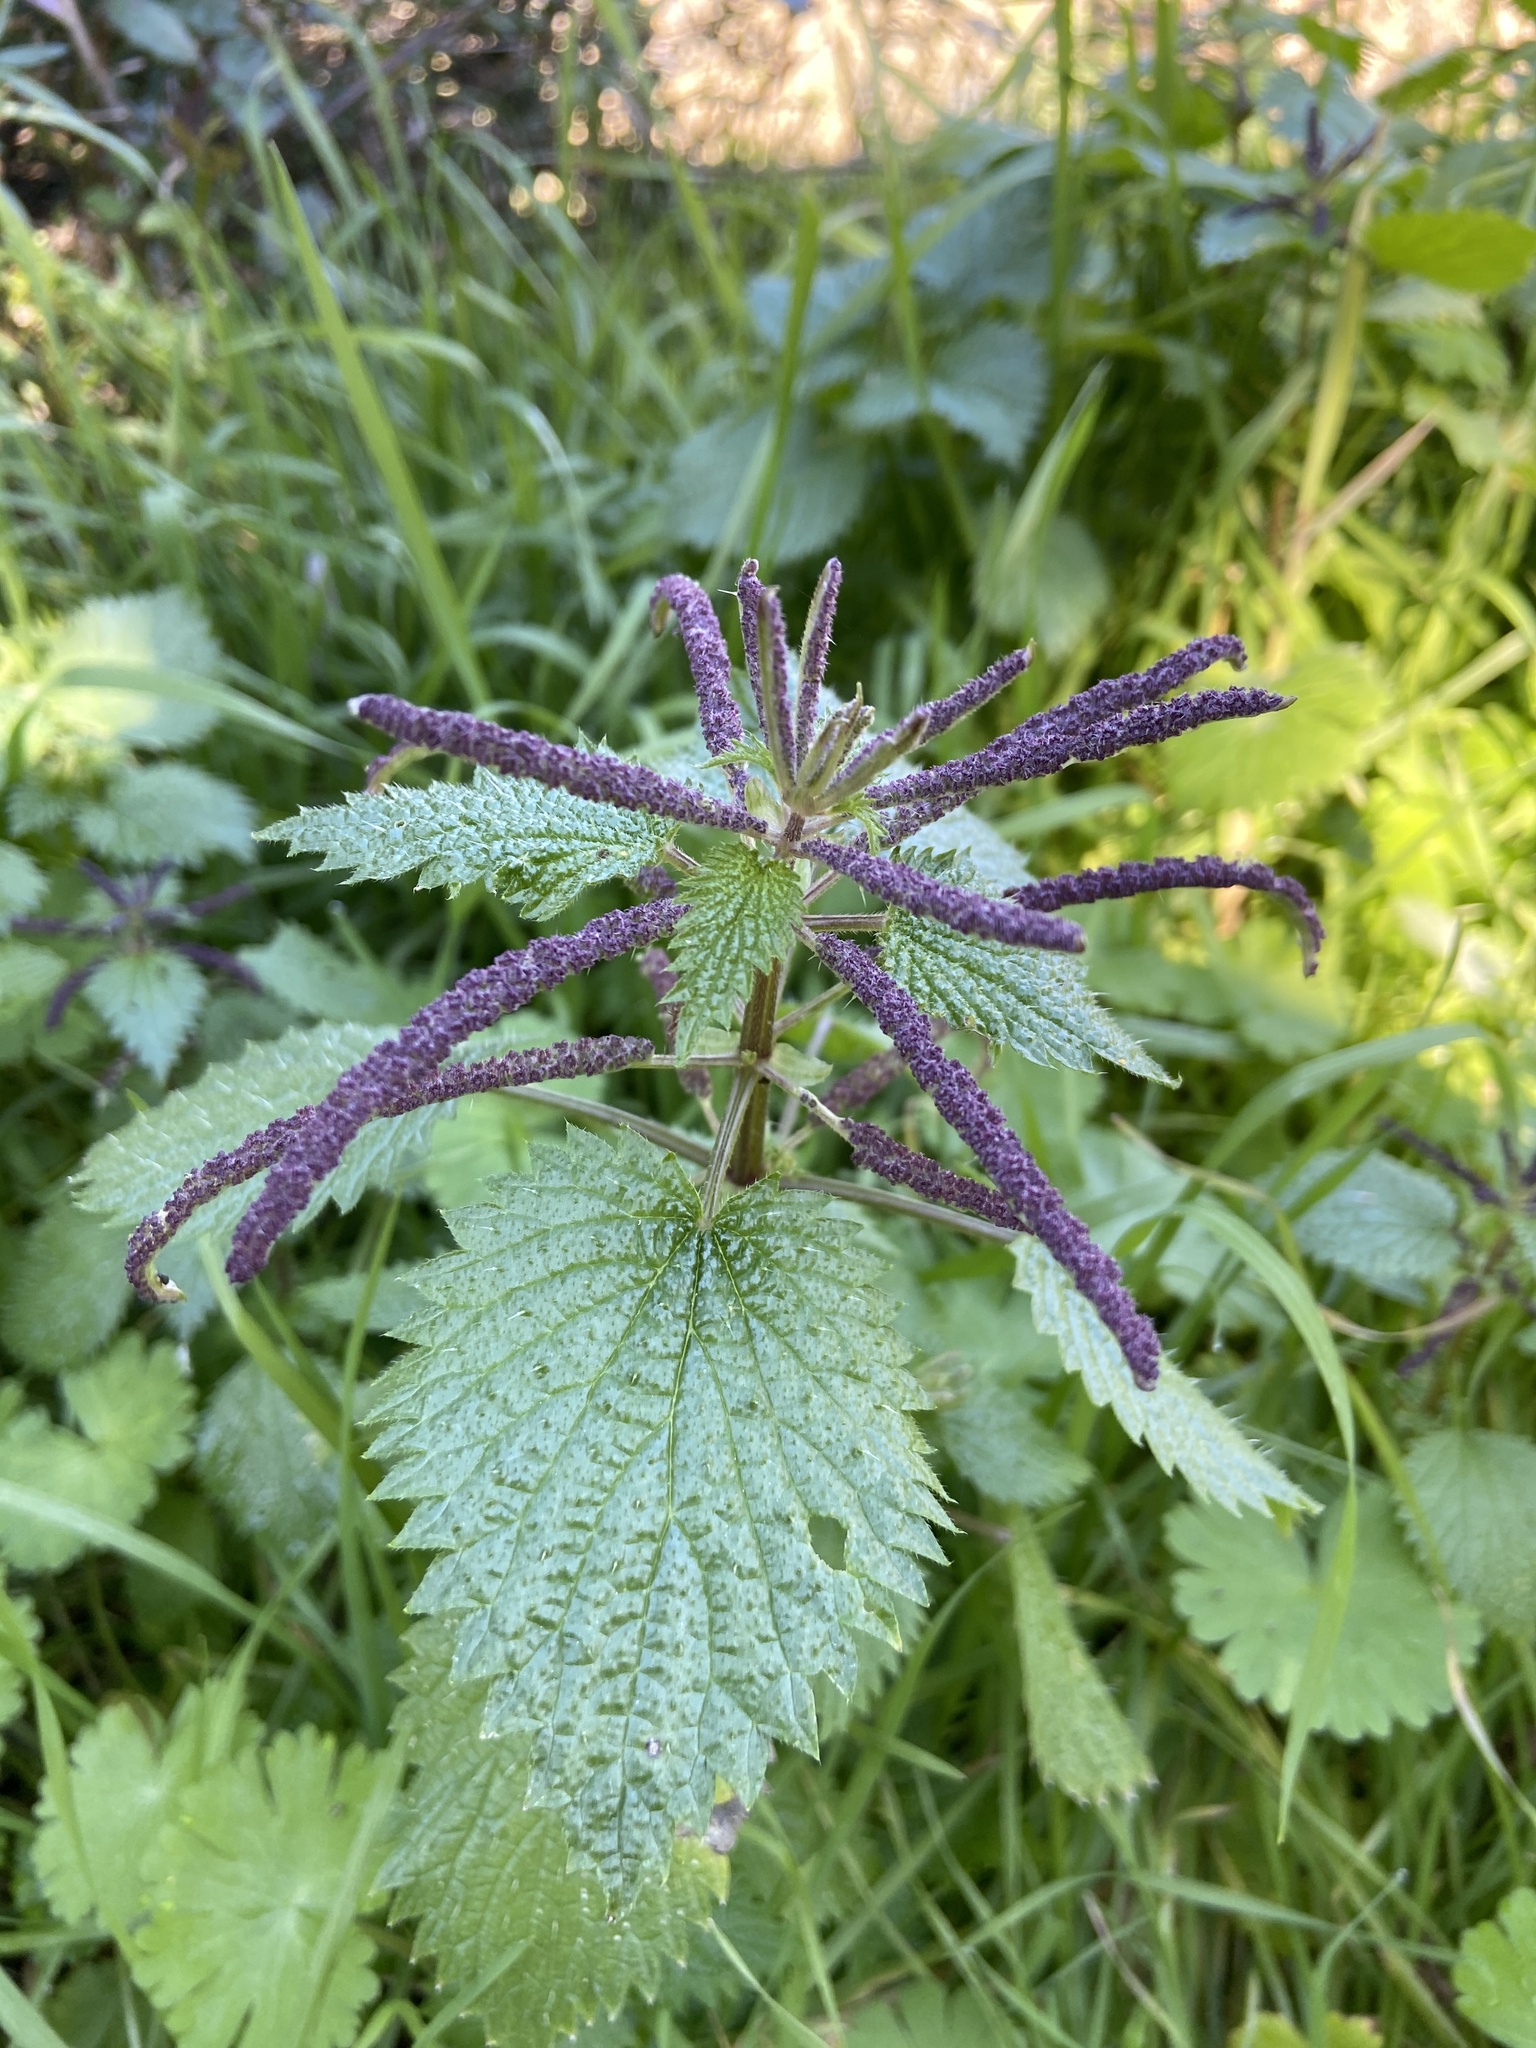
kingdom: Plantae
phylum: Tracheophyta
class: Magnoliopsida
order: Rosales
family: Urticaceae
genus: Urtica
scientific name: Urtica membranacea
